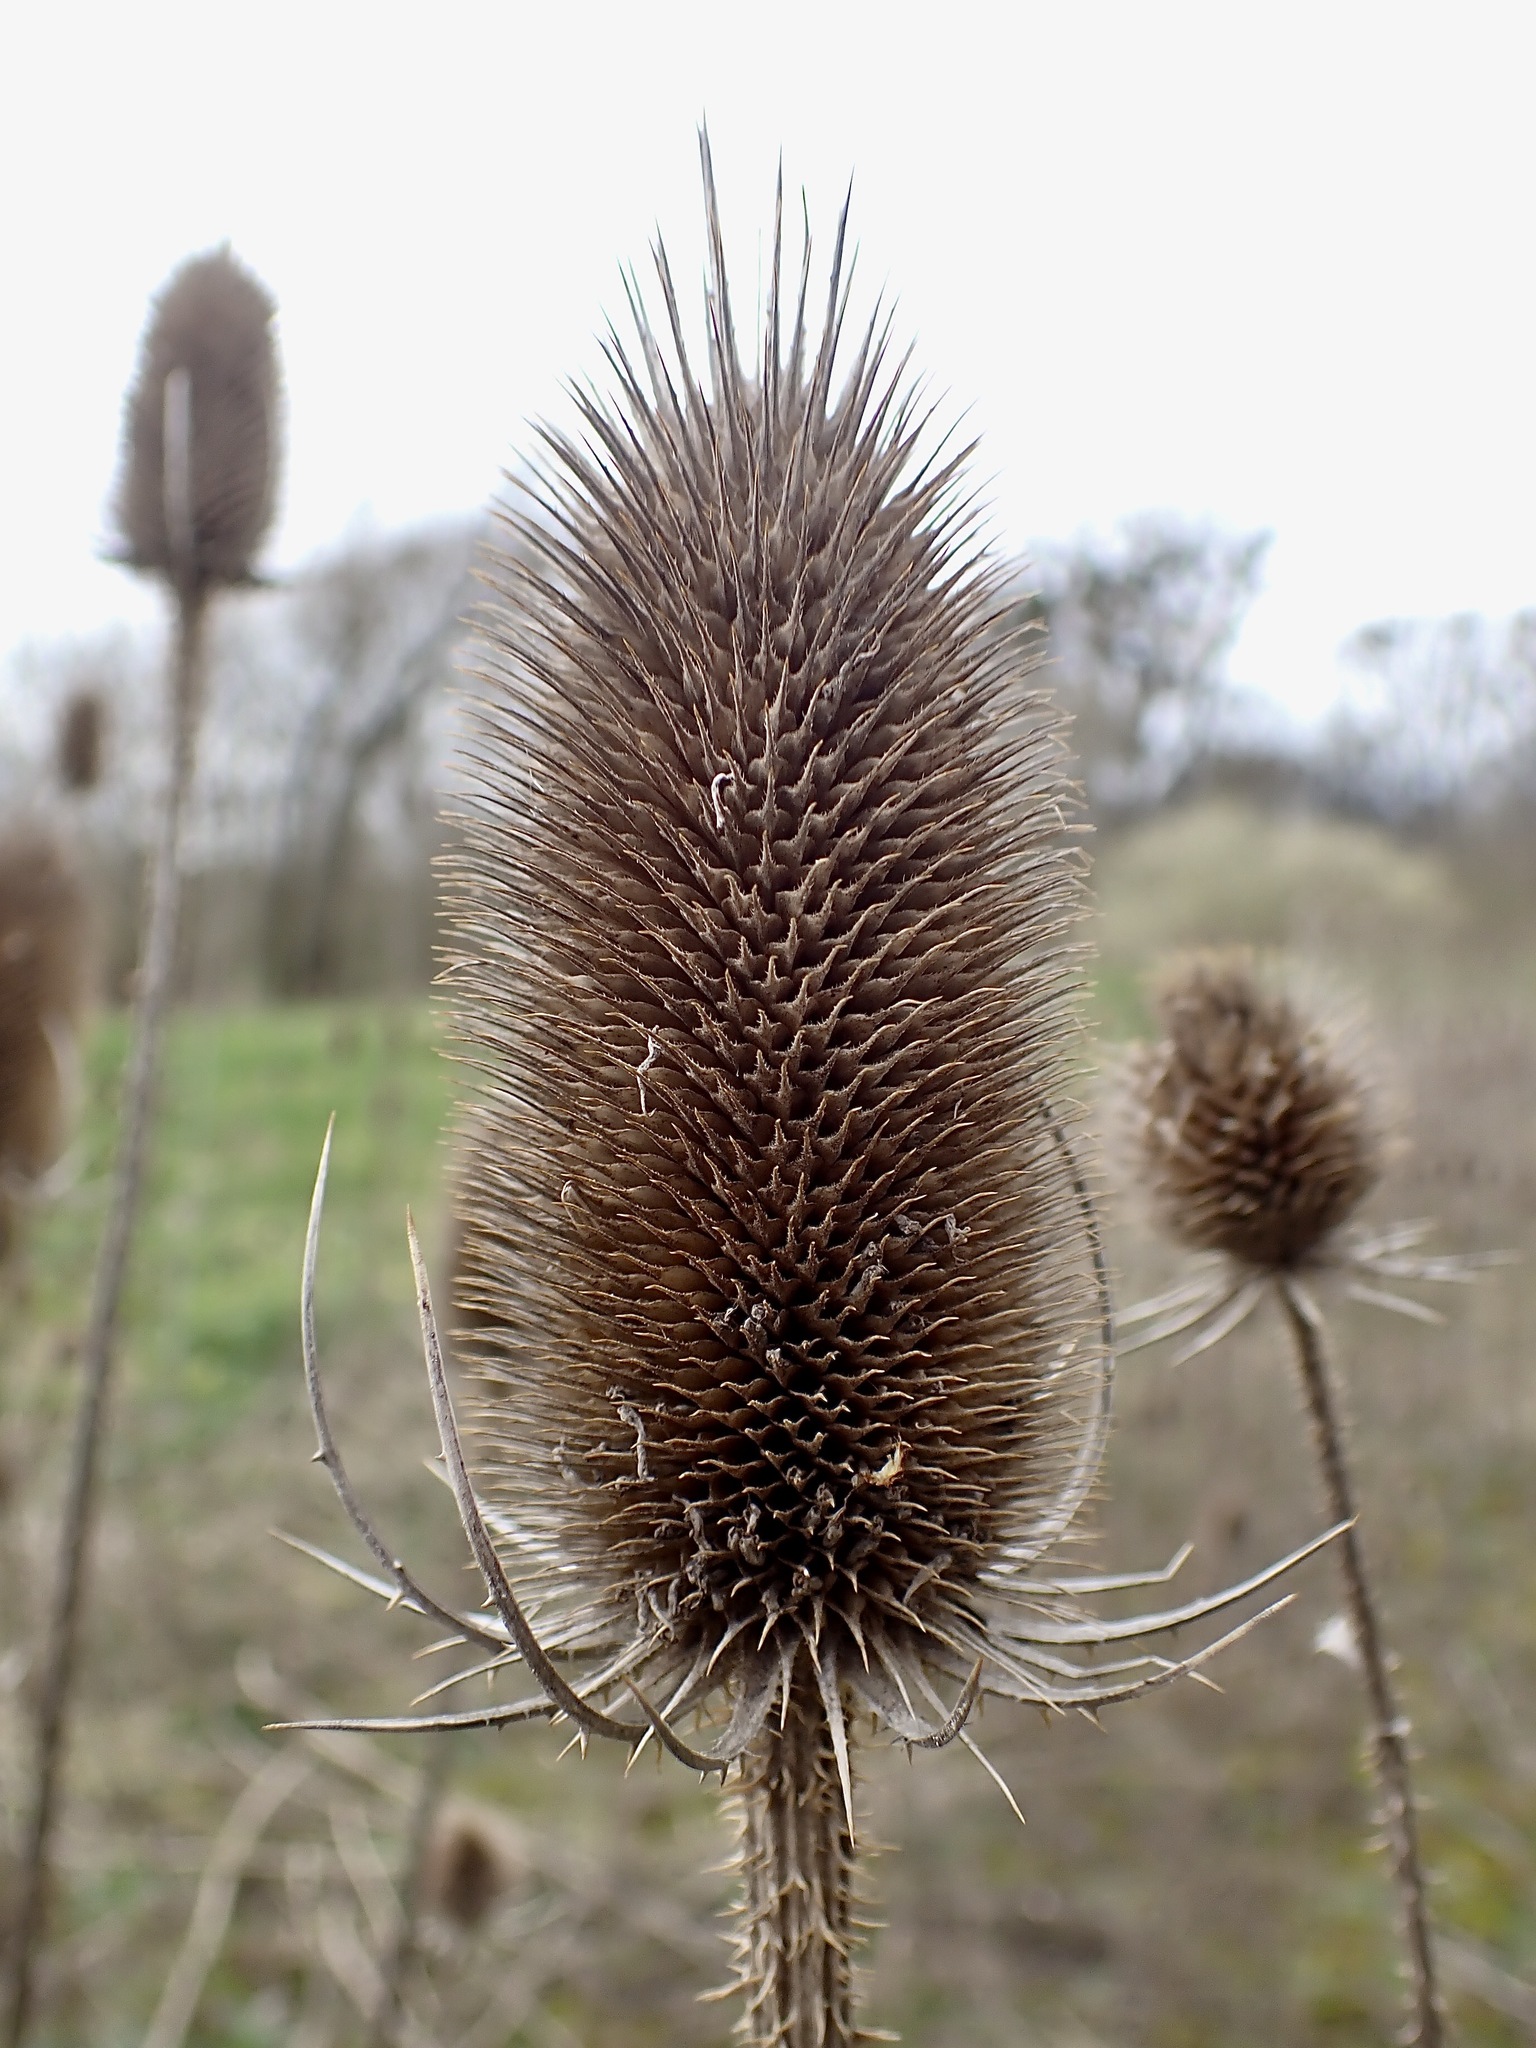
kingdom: Plantae
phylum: Tracheophyta
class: Magnoliopsida
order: Dipsacales
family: Caprifoliaceae
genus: Dipsacus
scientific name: Dipsacus fullonum
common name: Teasel
